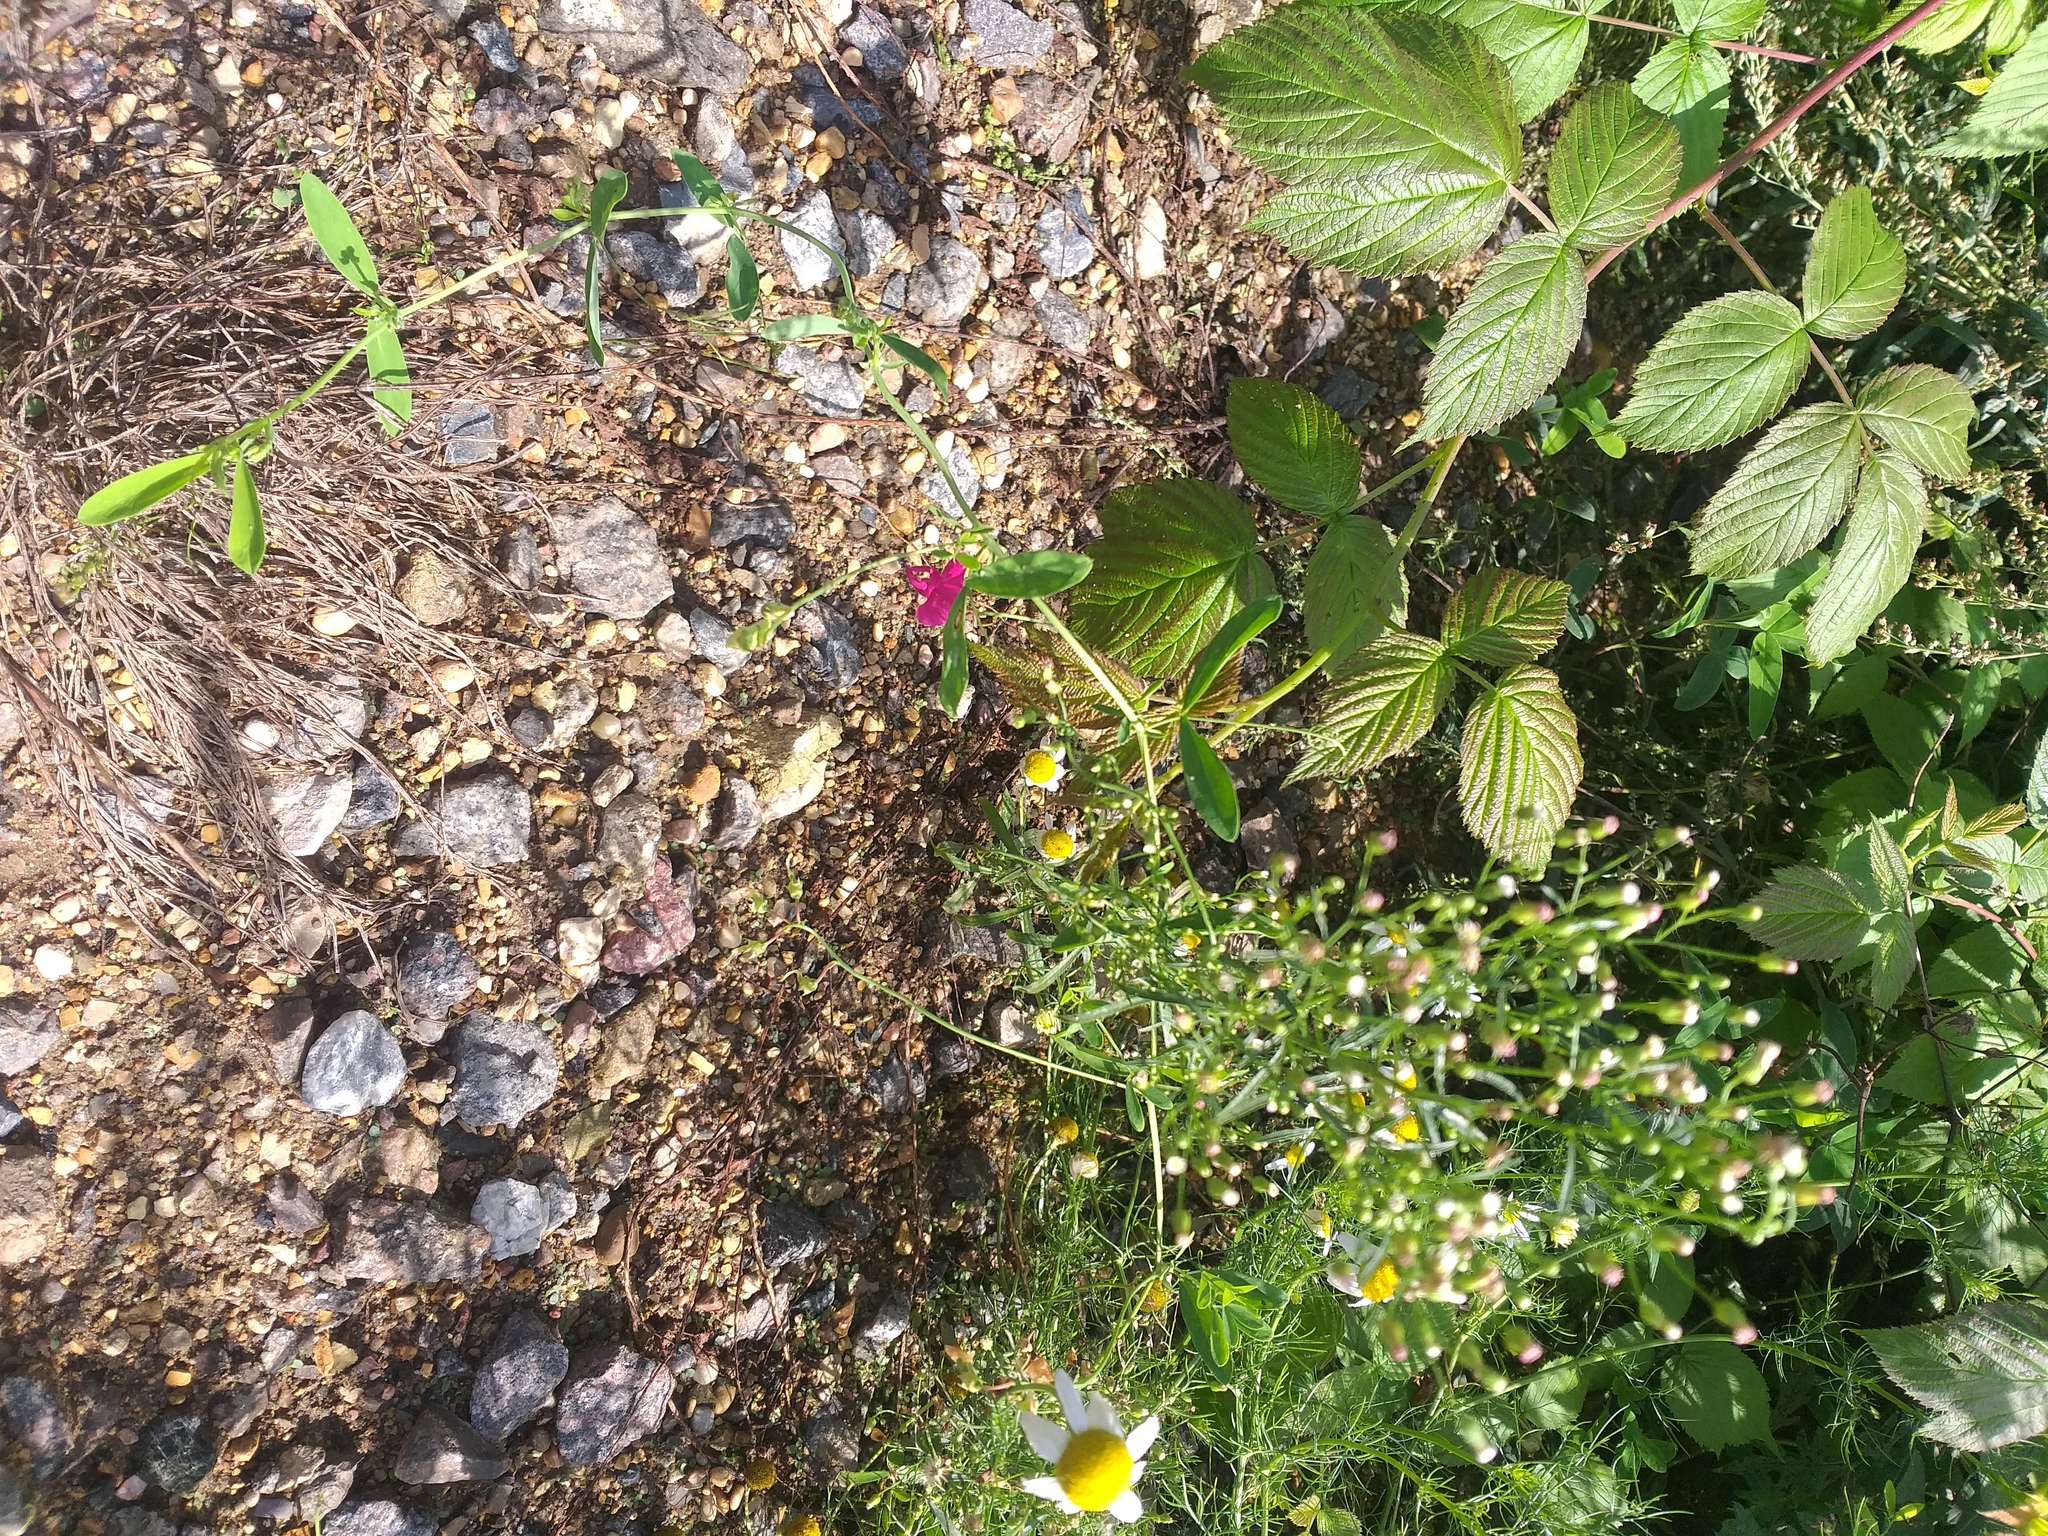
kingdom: Plantae
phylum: Tracheophyta
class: Magnoliopsida
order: Fabales
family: Fabaceae
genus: Lathyrus
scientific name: Lathyrus tuberosus
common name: Tuberous pea
